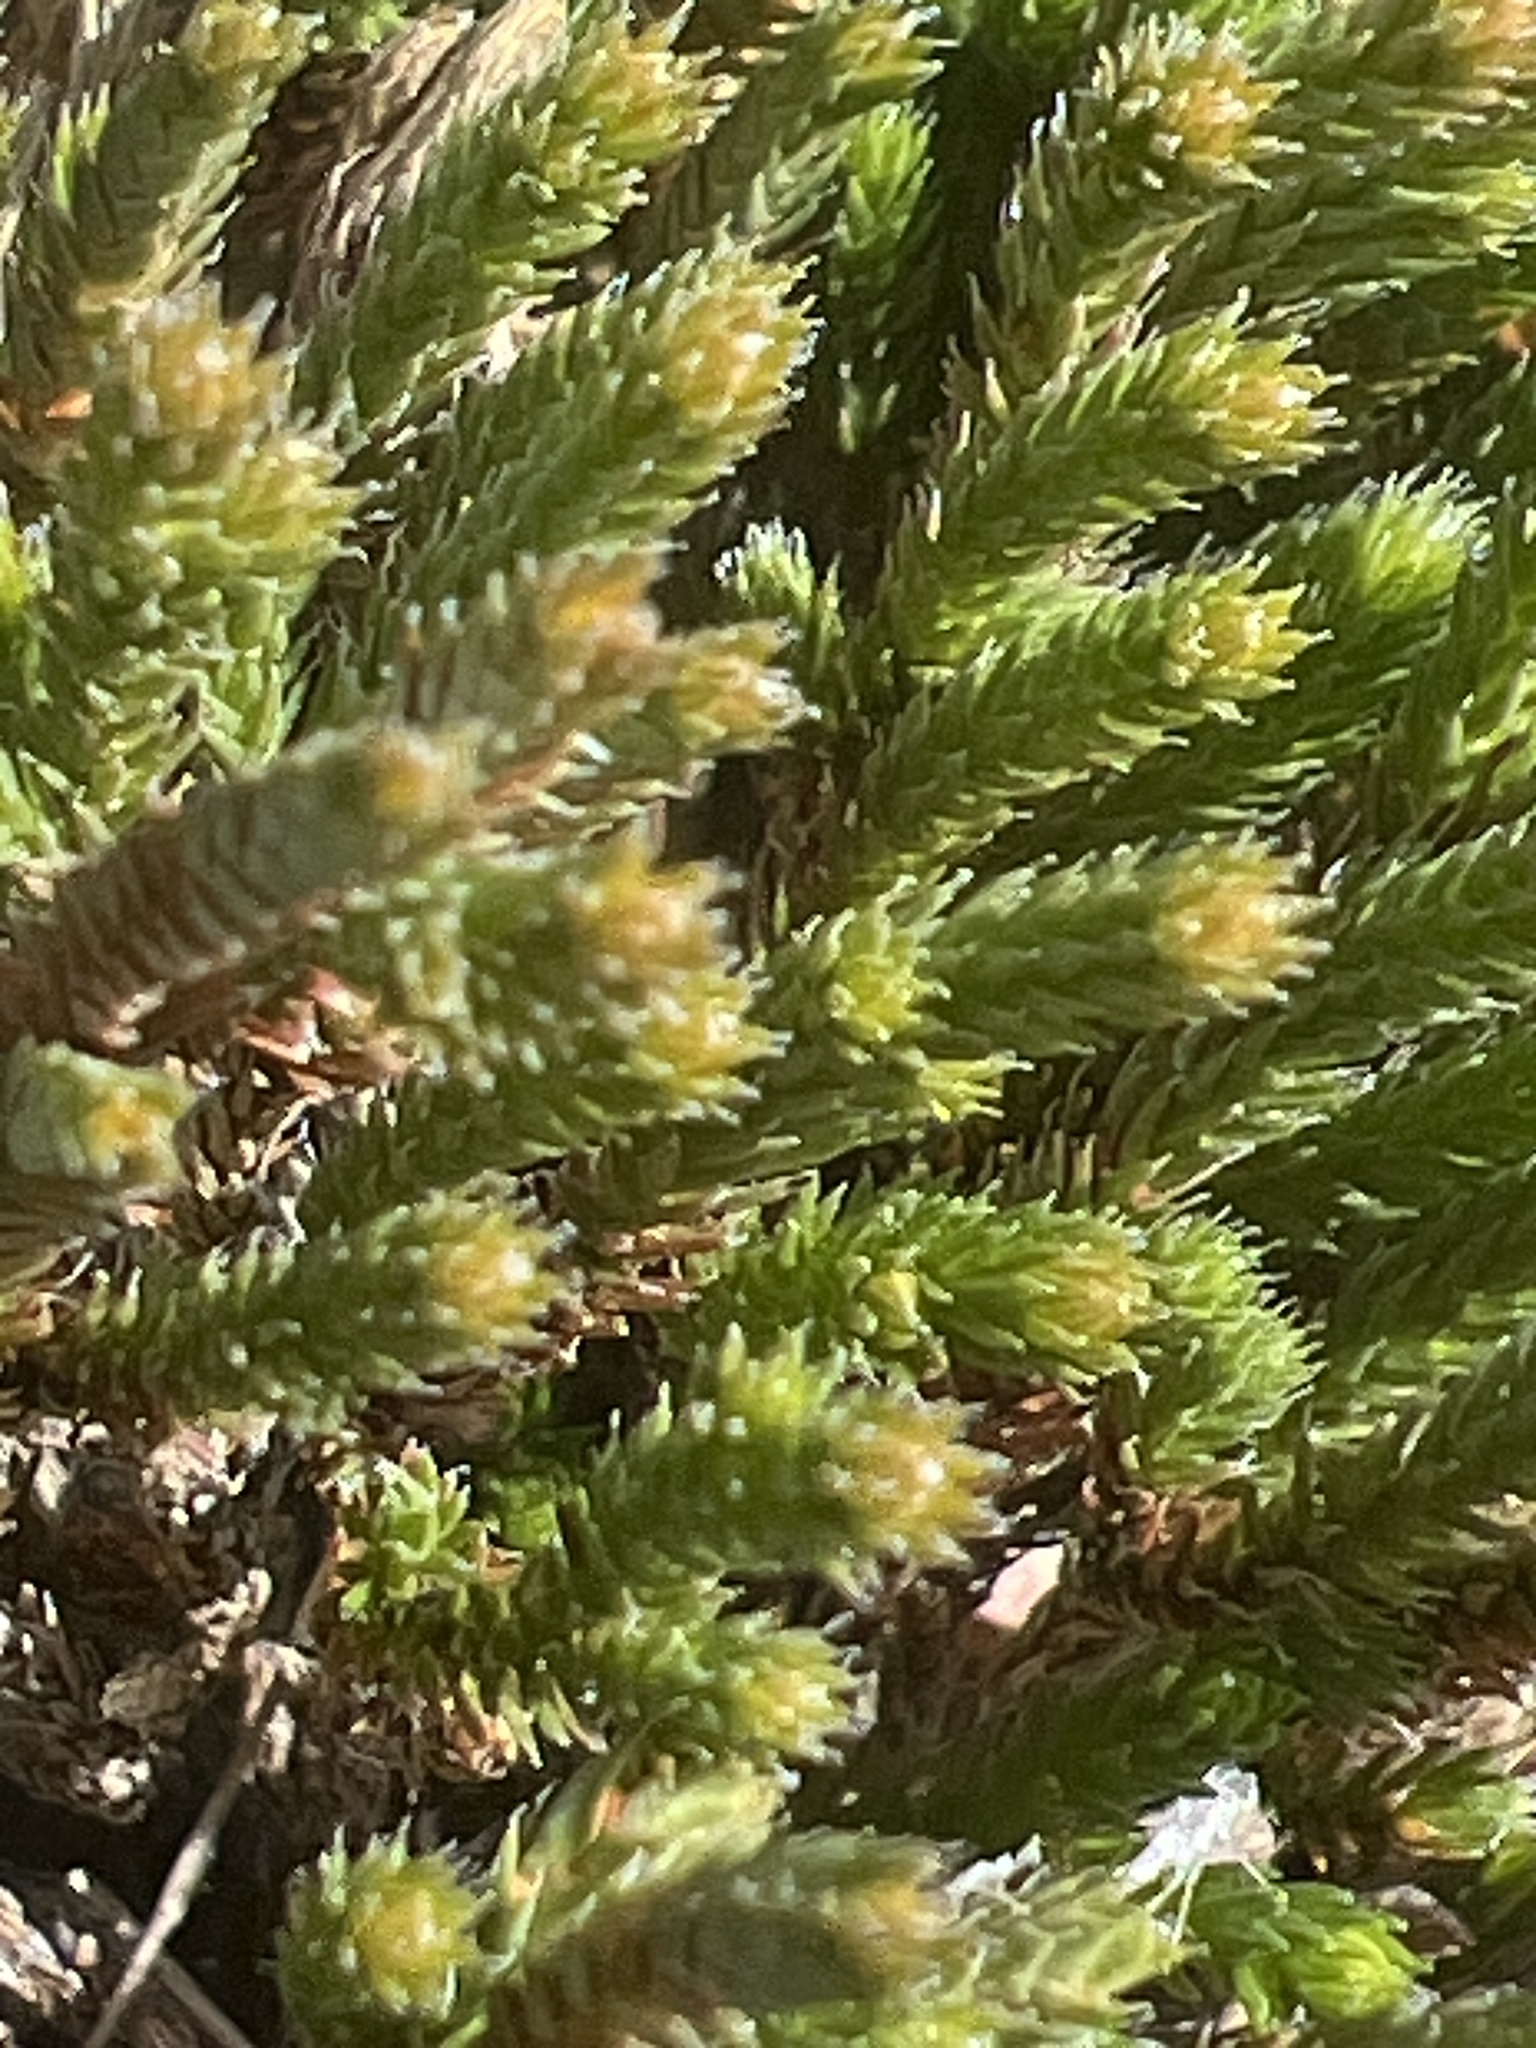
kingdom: Plantae
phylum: Tracheophyta
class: Lycopodiopsida
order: Selaginellales
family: Selaginellaceae
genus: Selaginella
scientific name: Selaginella corallina
